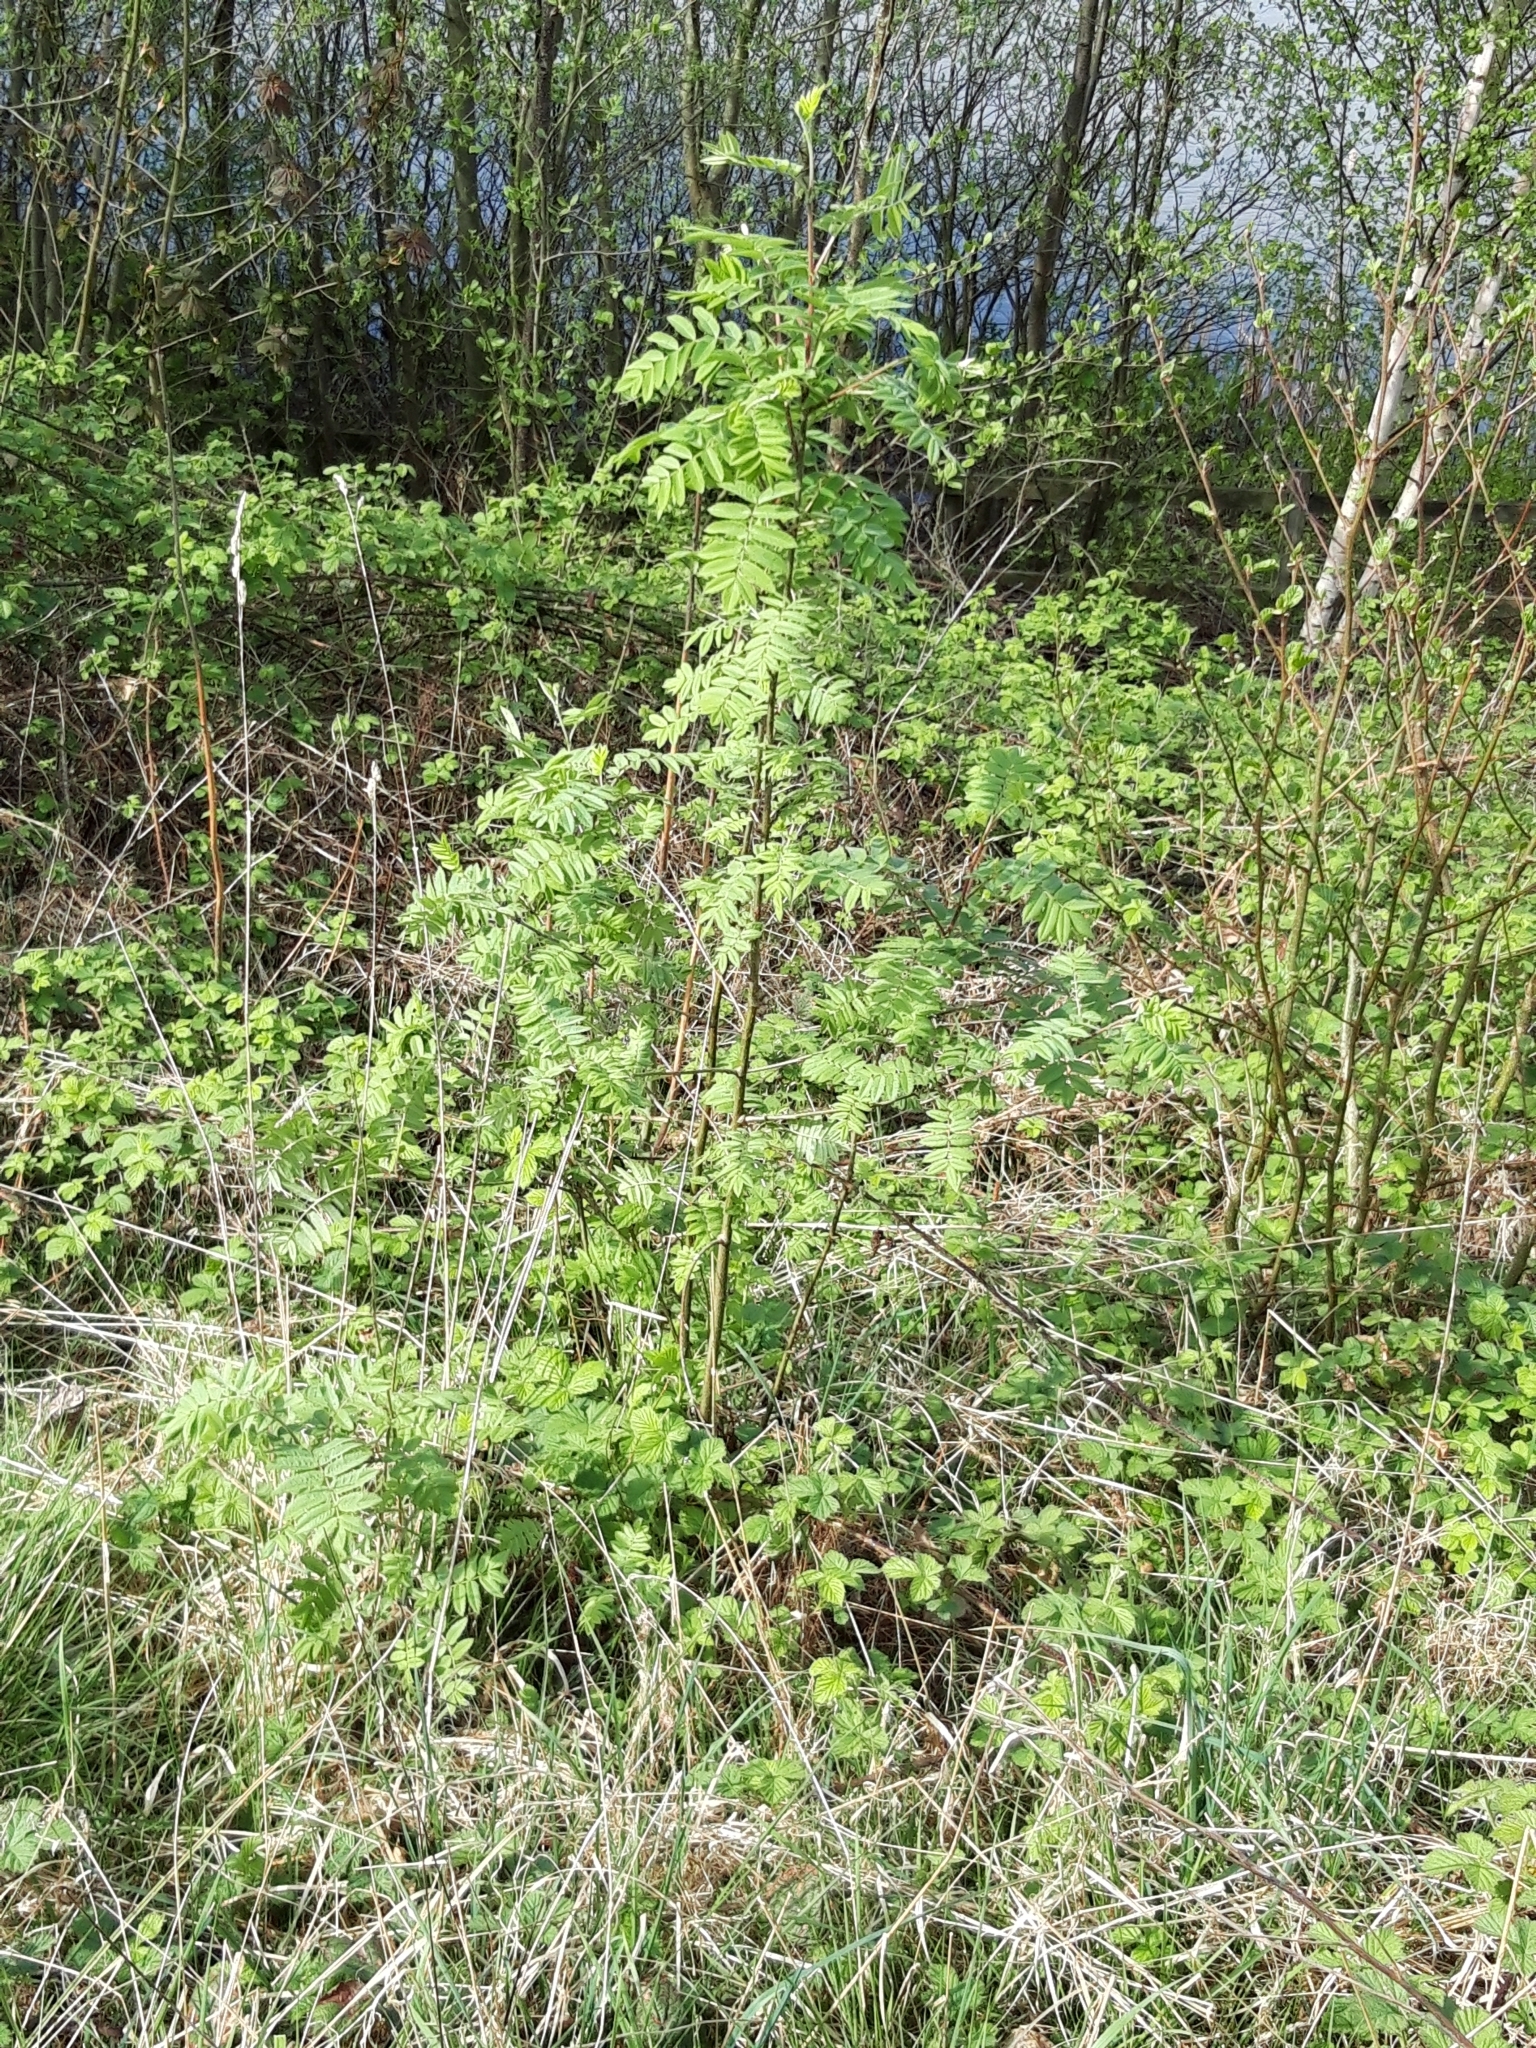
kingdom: Plantae
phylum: Tracheophyta
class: Magnoliopsida
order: Rosales
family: Rosaceae
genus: Sorbus
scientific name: Sorbus aucuparia
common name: Rowan
